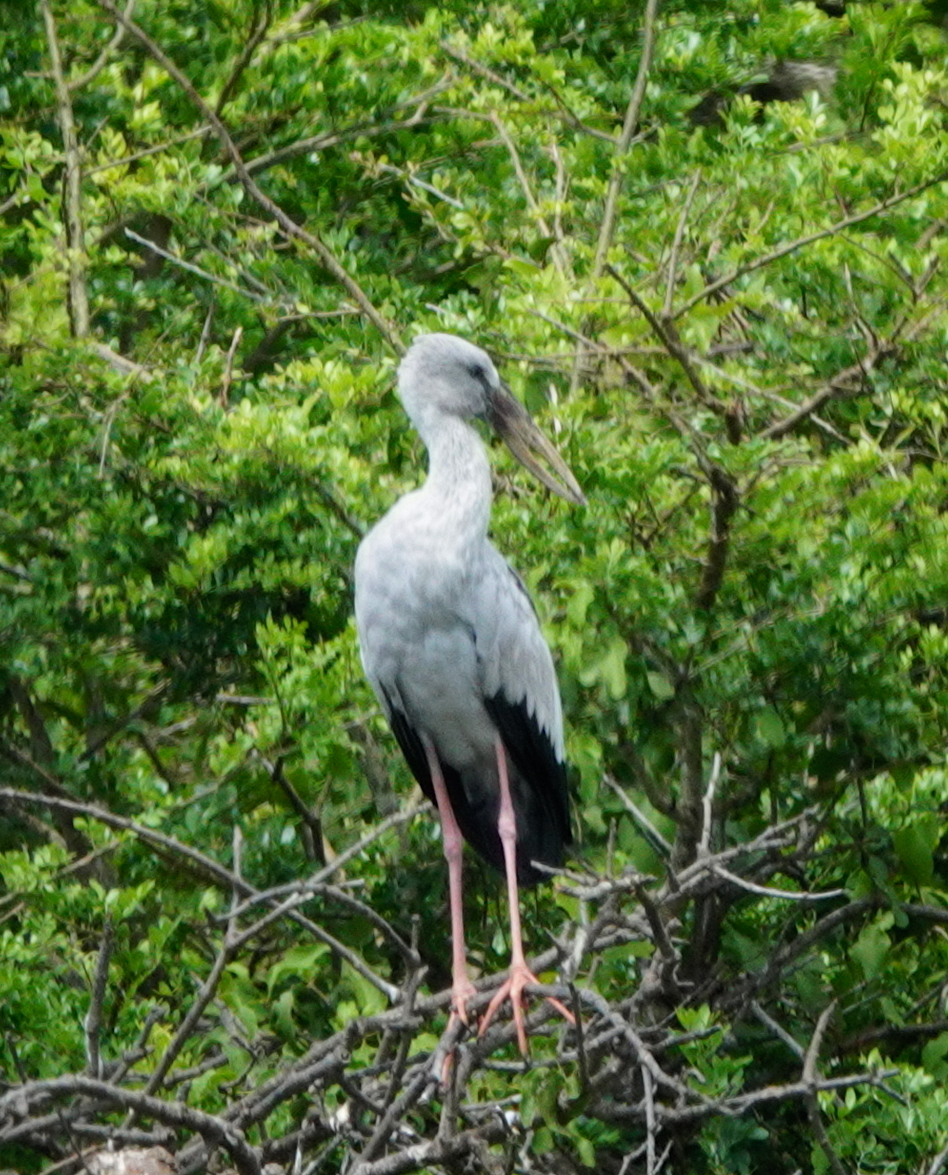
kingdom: Animalia
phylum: Chordata
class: Aves
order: Ciconiiformes
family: Ciconiidae
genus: Anastomus
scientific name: Anastomus oscitans
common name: Asian openbill
